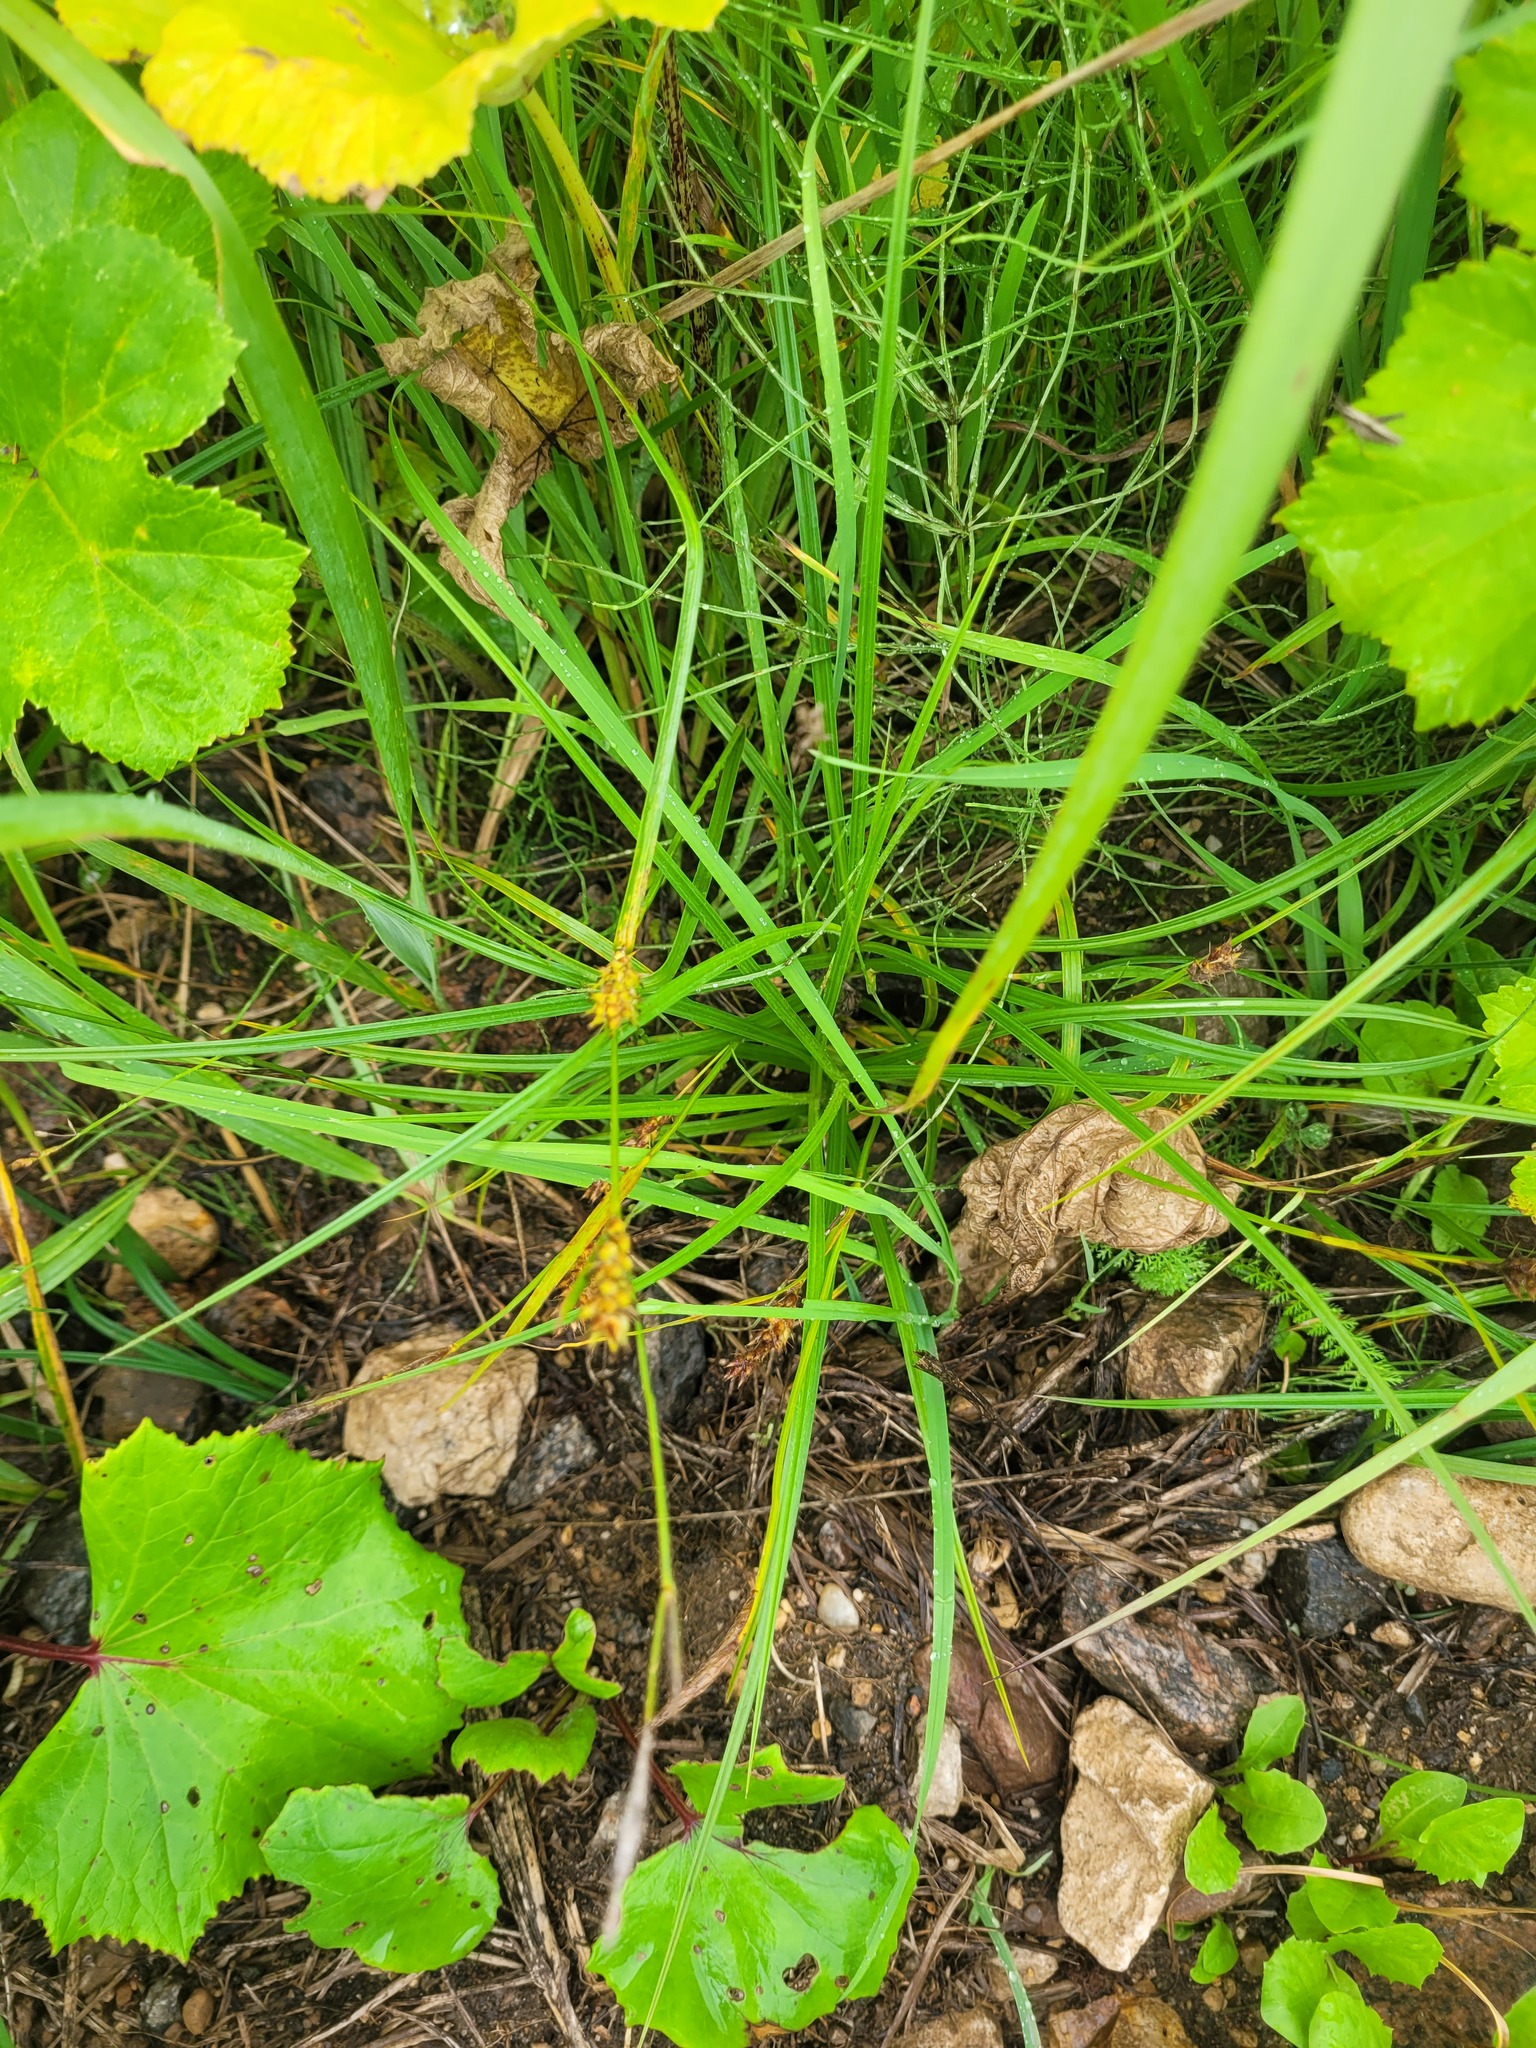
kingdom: Plantae
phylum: Tracheophyta
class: Liliopsida
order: Poales
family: Cyperaceae
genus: Carex
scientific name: Carex hirta
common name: Hairy sedge
